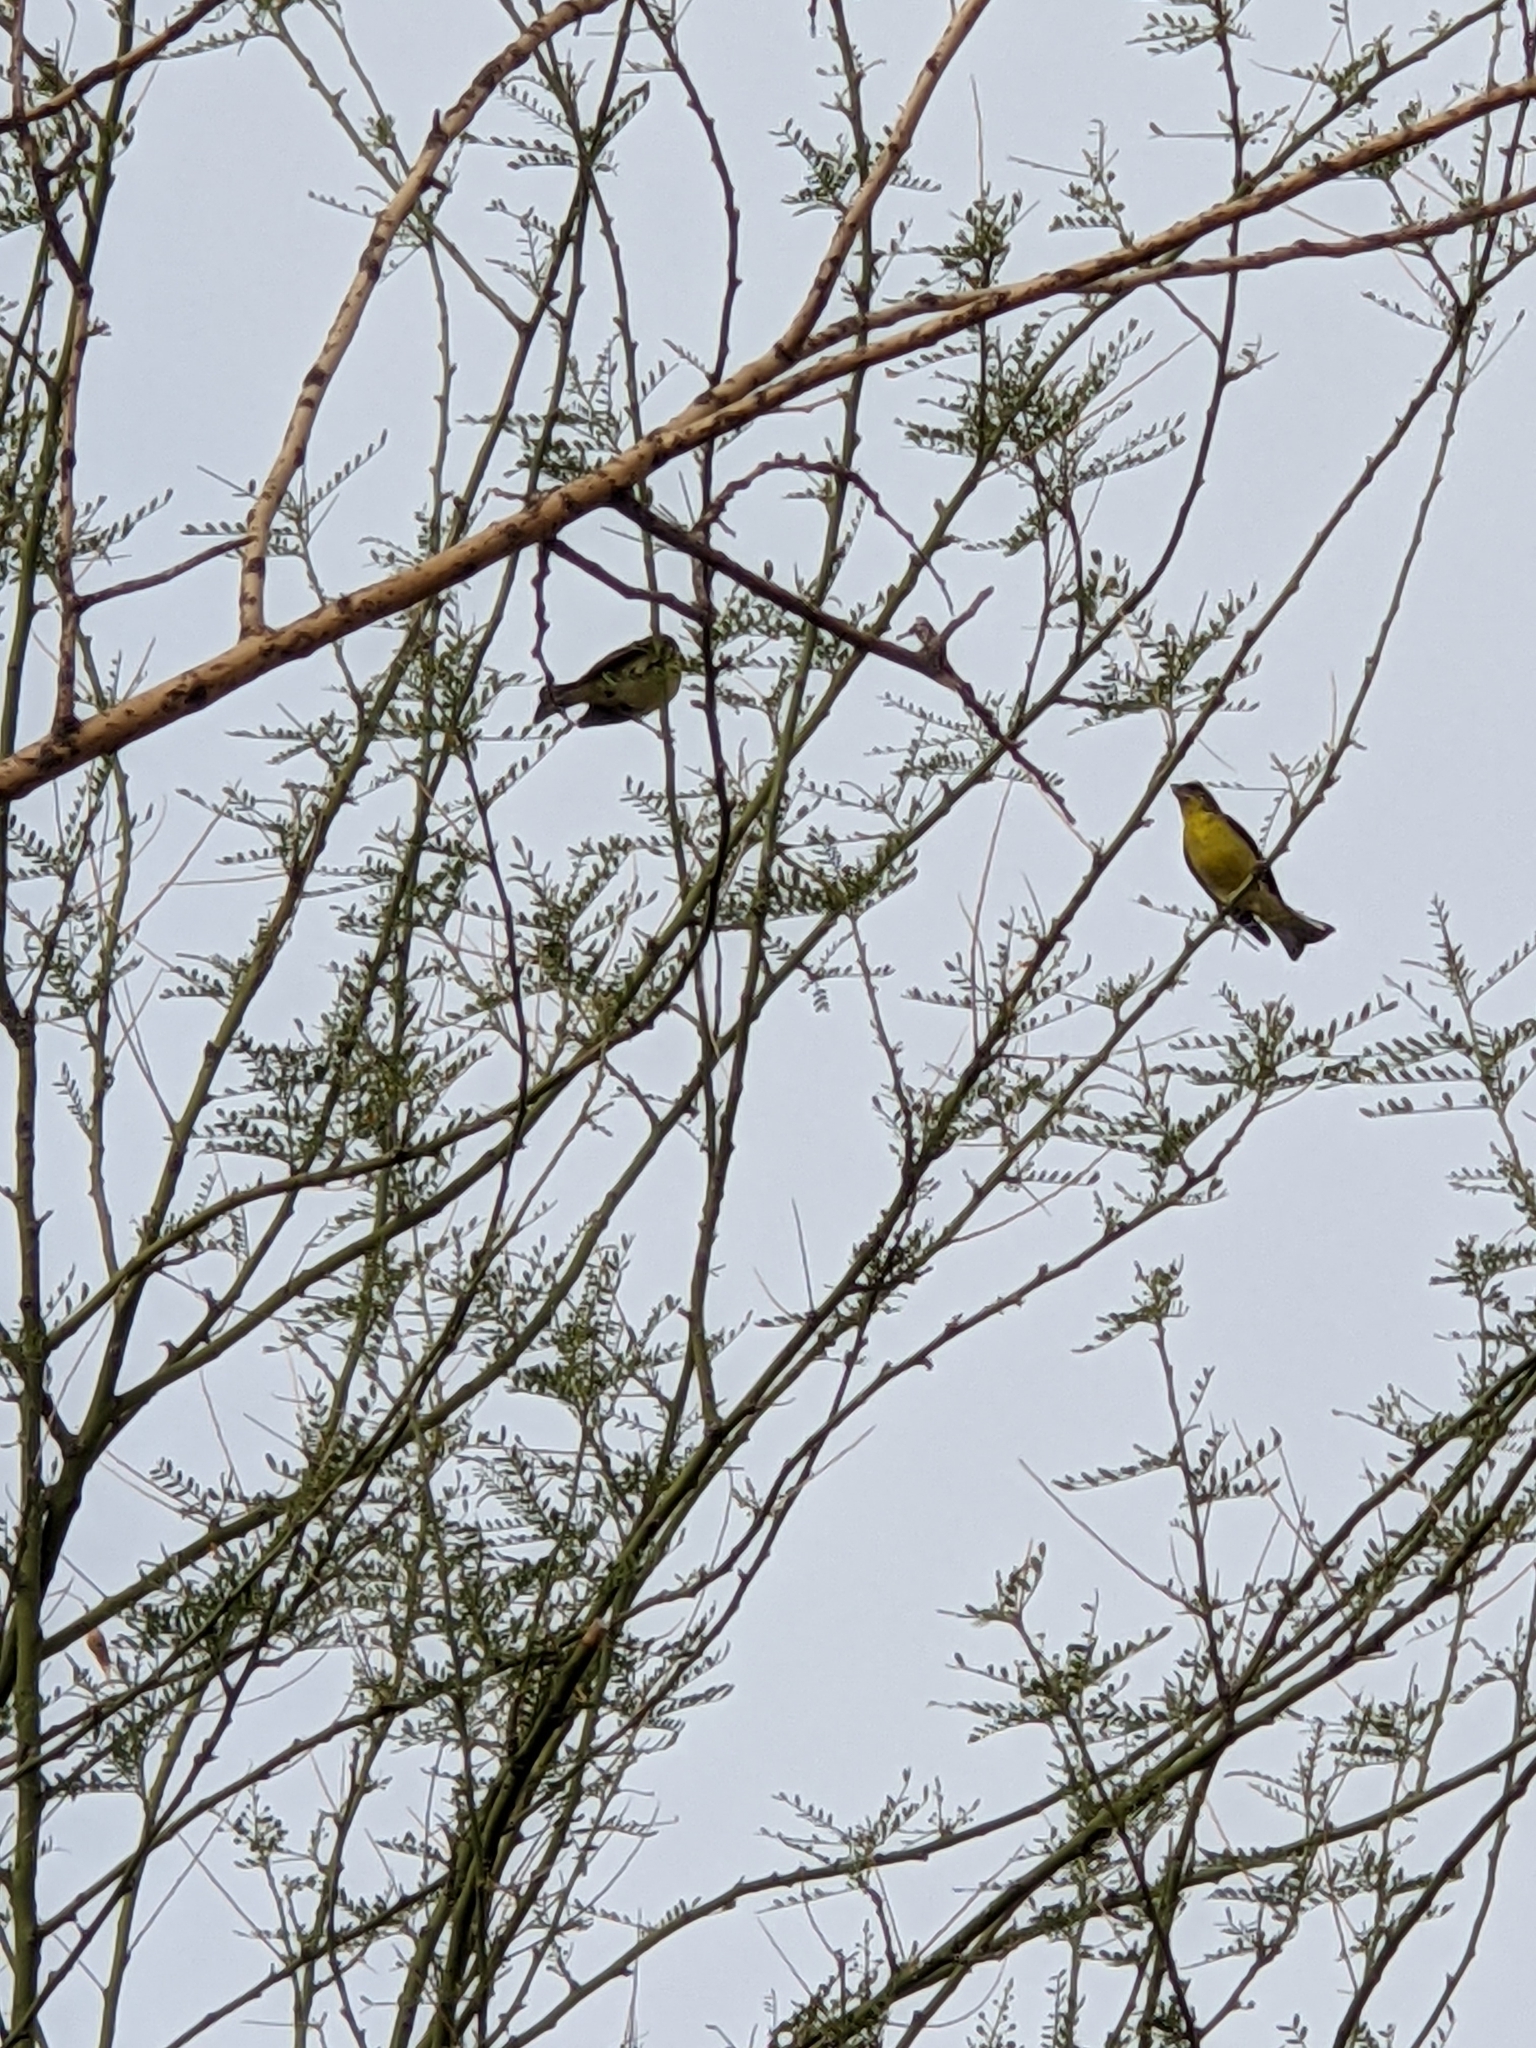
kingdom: Animalia
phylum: Chordata
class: Aves
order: Passeriformes
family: Fringillidae
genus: Spinus
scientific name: Spinus psaltria
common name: Lesser goldfinch
